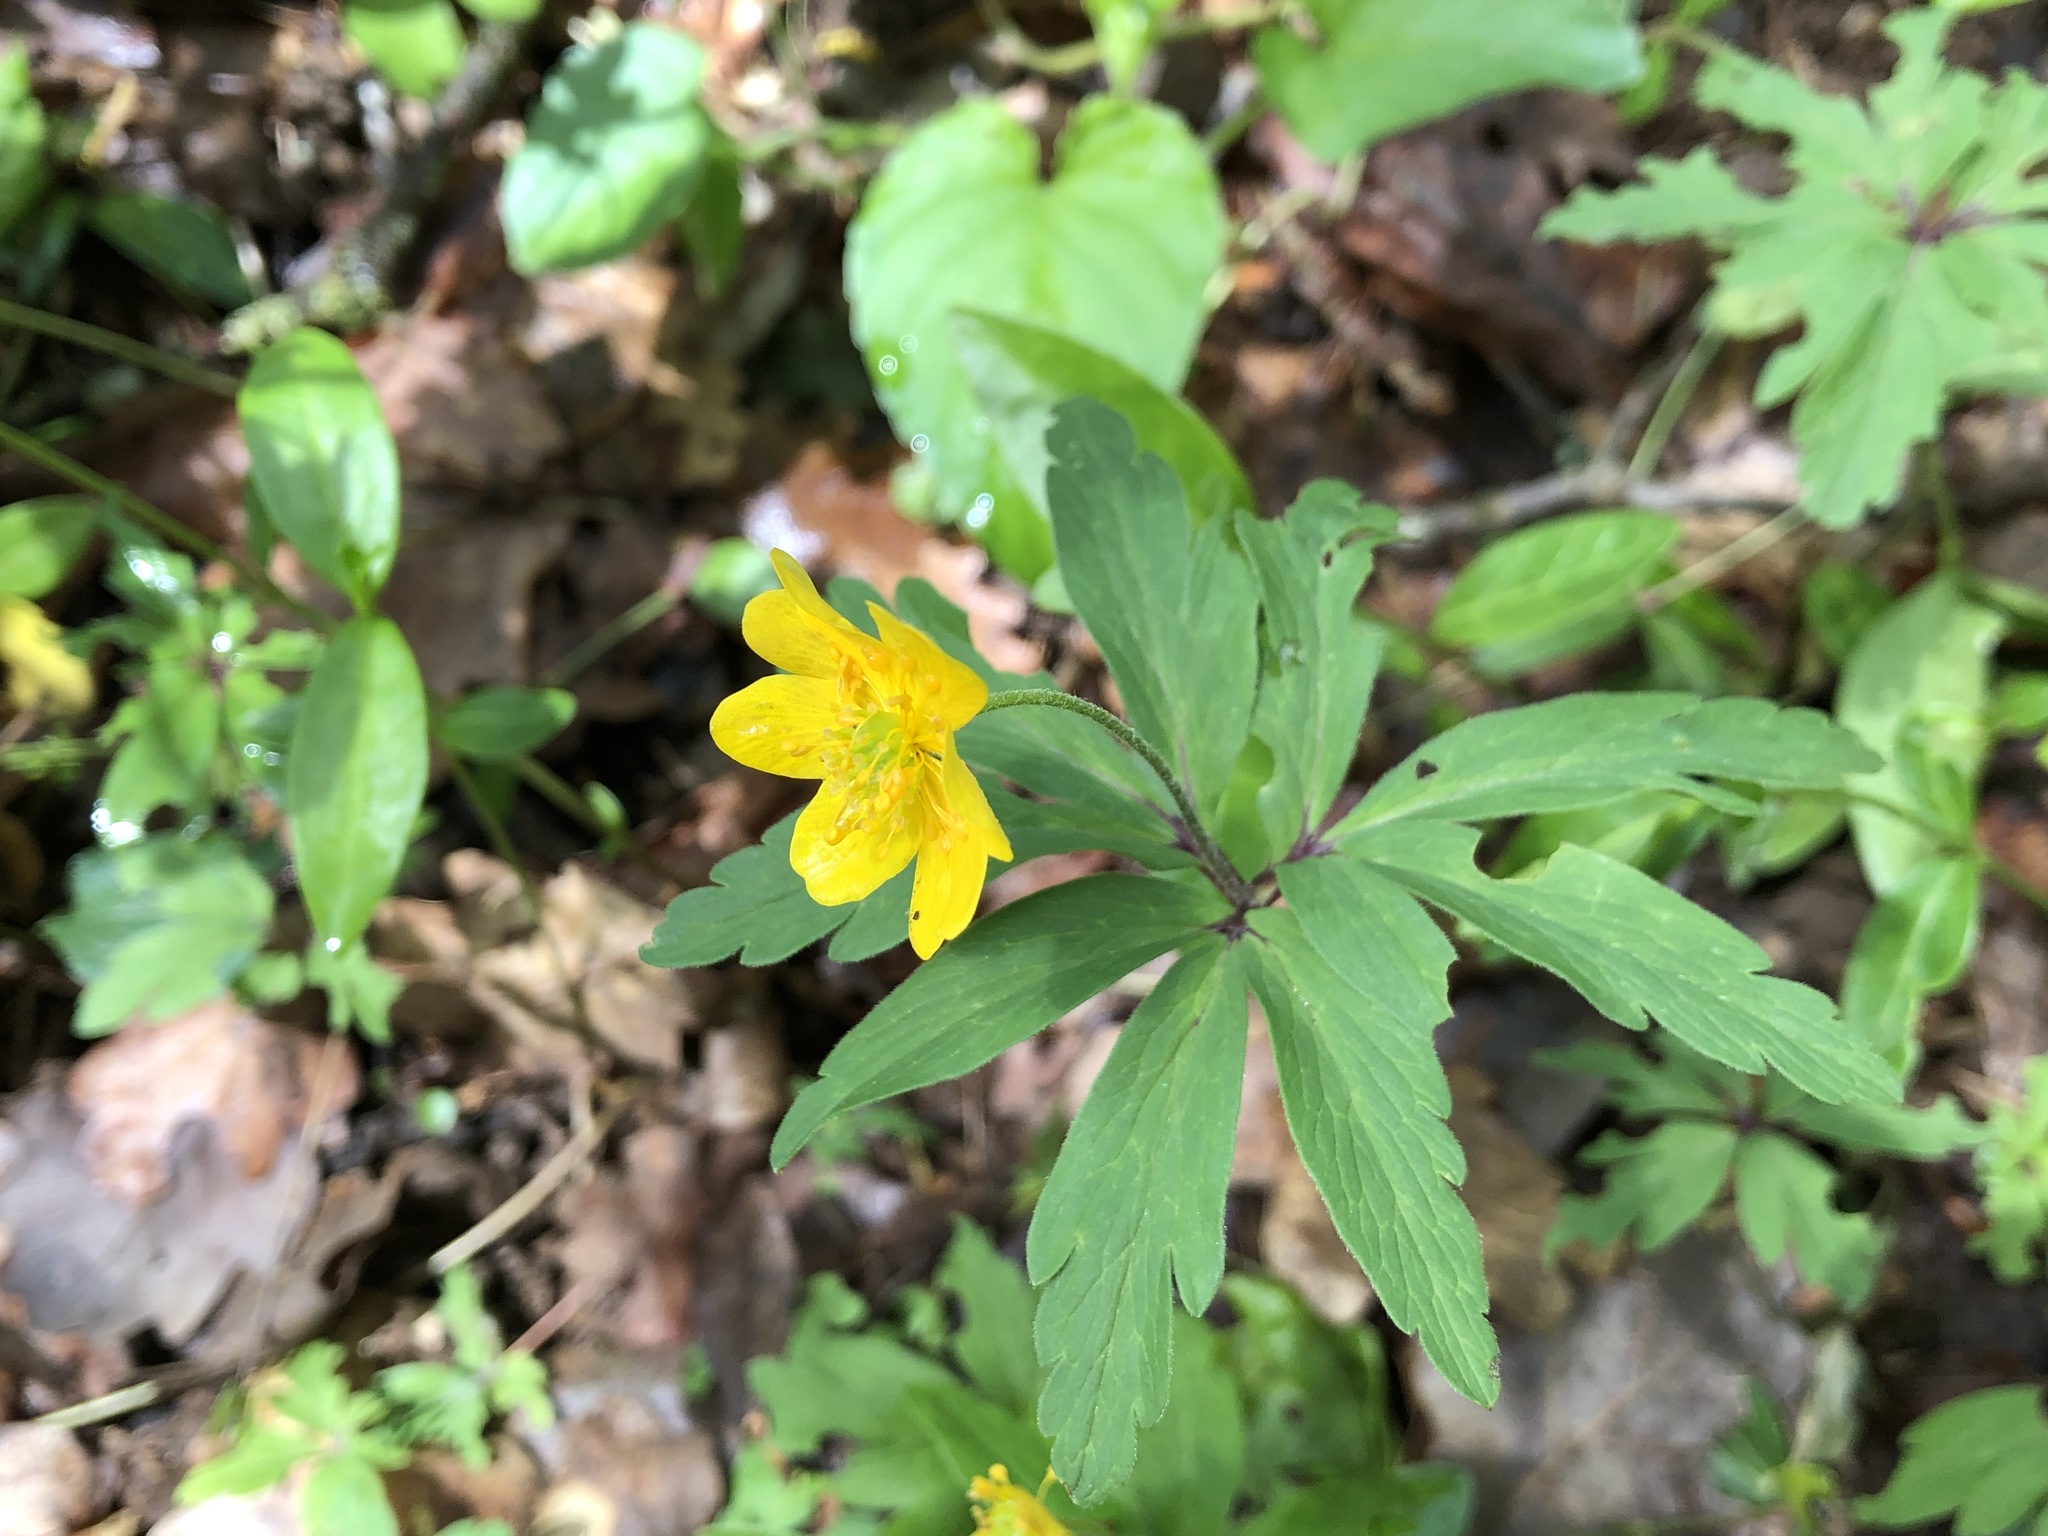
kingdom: Plantae
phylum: Tracheophyta
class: Magnoliopsida
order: Ranunculales
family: Ranunculaceae
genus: Anemone
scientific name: Anemone ranunculoides
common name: Yellow anemone
